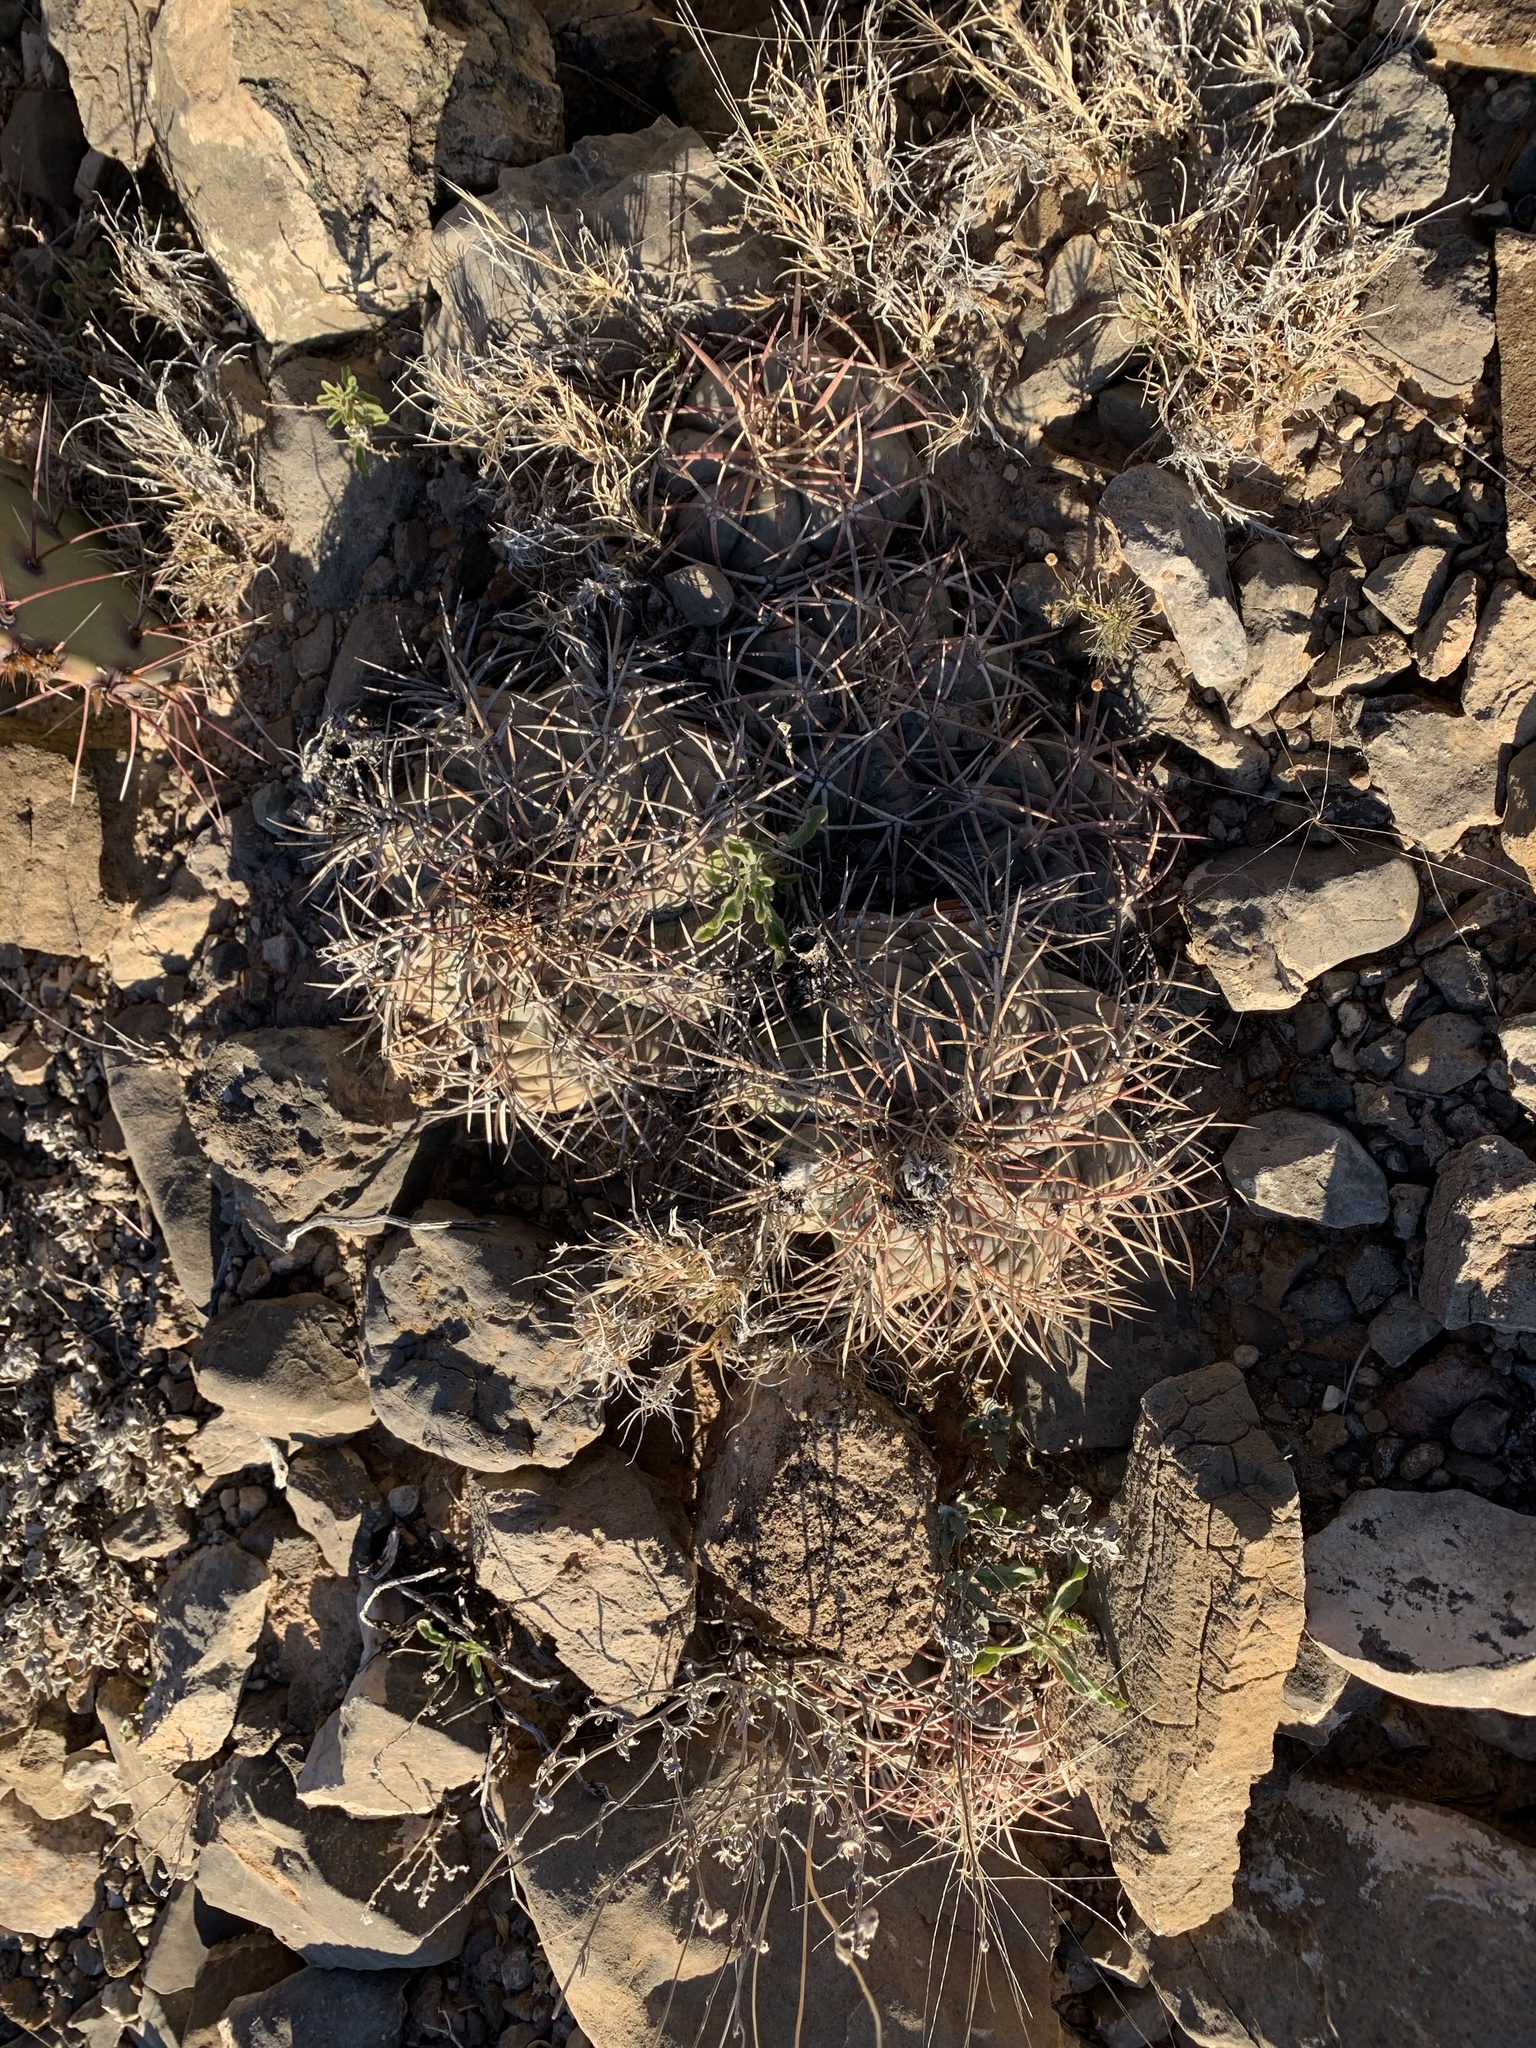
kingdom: Plantae
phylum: Tracheophyta
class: Magnoliopsida
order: Caryophyllales
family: Cactaceae
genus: Echinocactus
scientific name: Echinocactus horizonthalonius
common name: Devilshead
